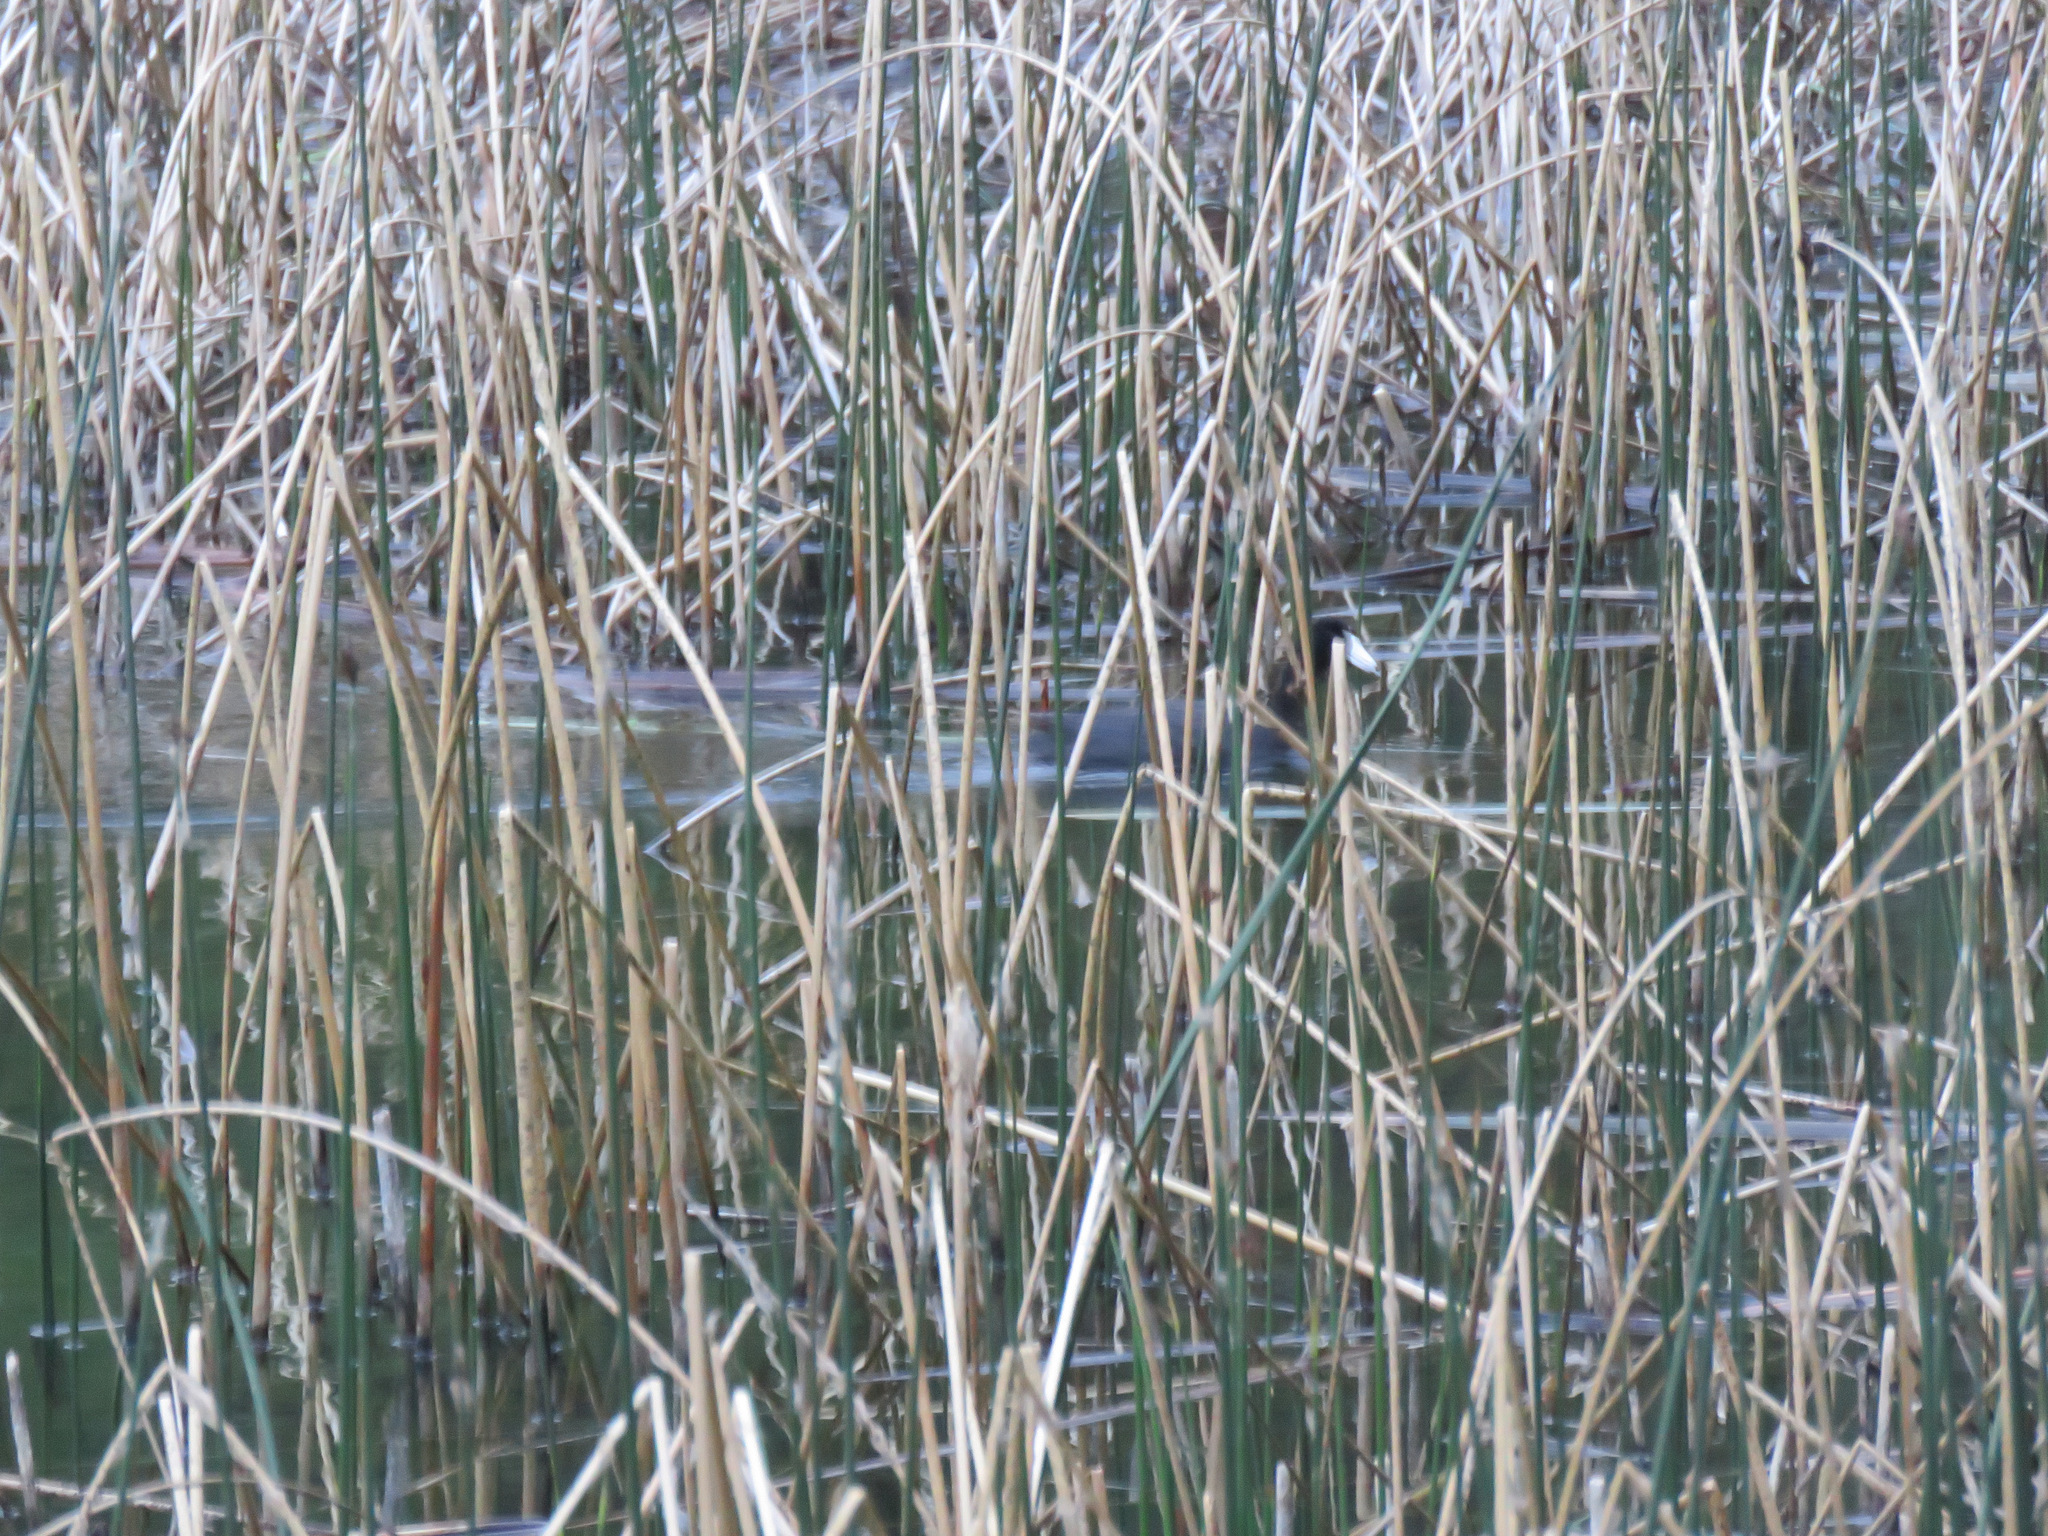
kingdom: Animalia
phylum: Chordata
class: Aves
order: Gruiformes
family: Rallidae
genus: Fulica
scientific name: Fulica americana
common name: American coot
